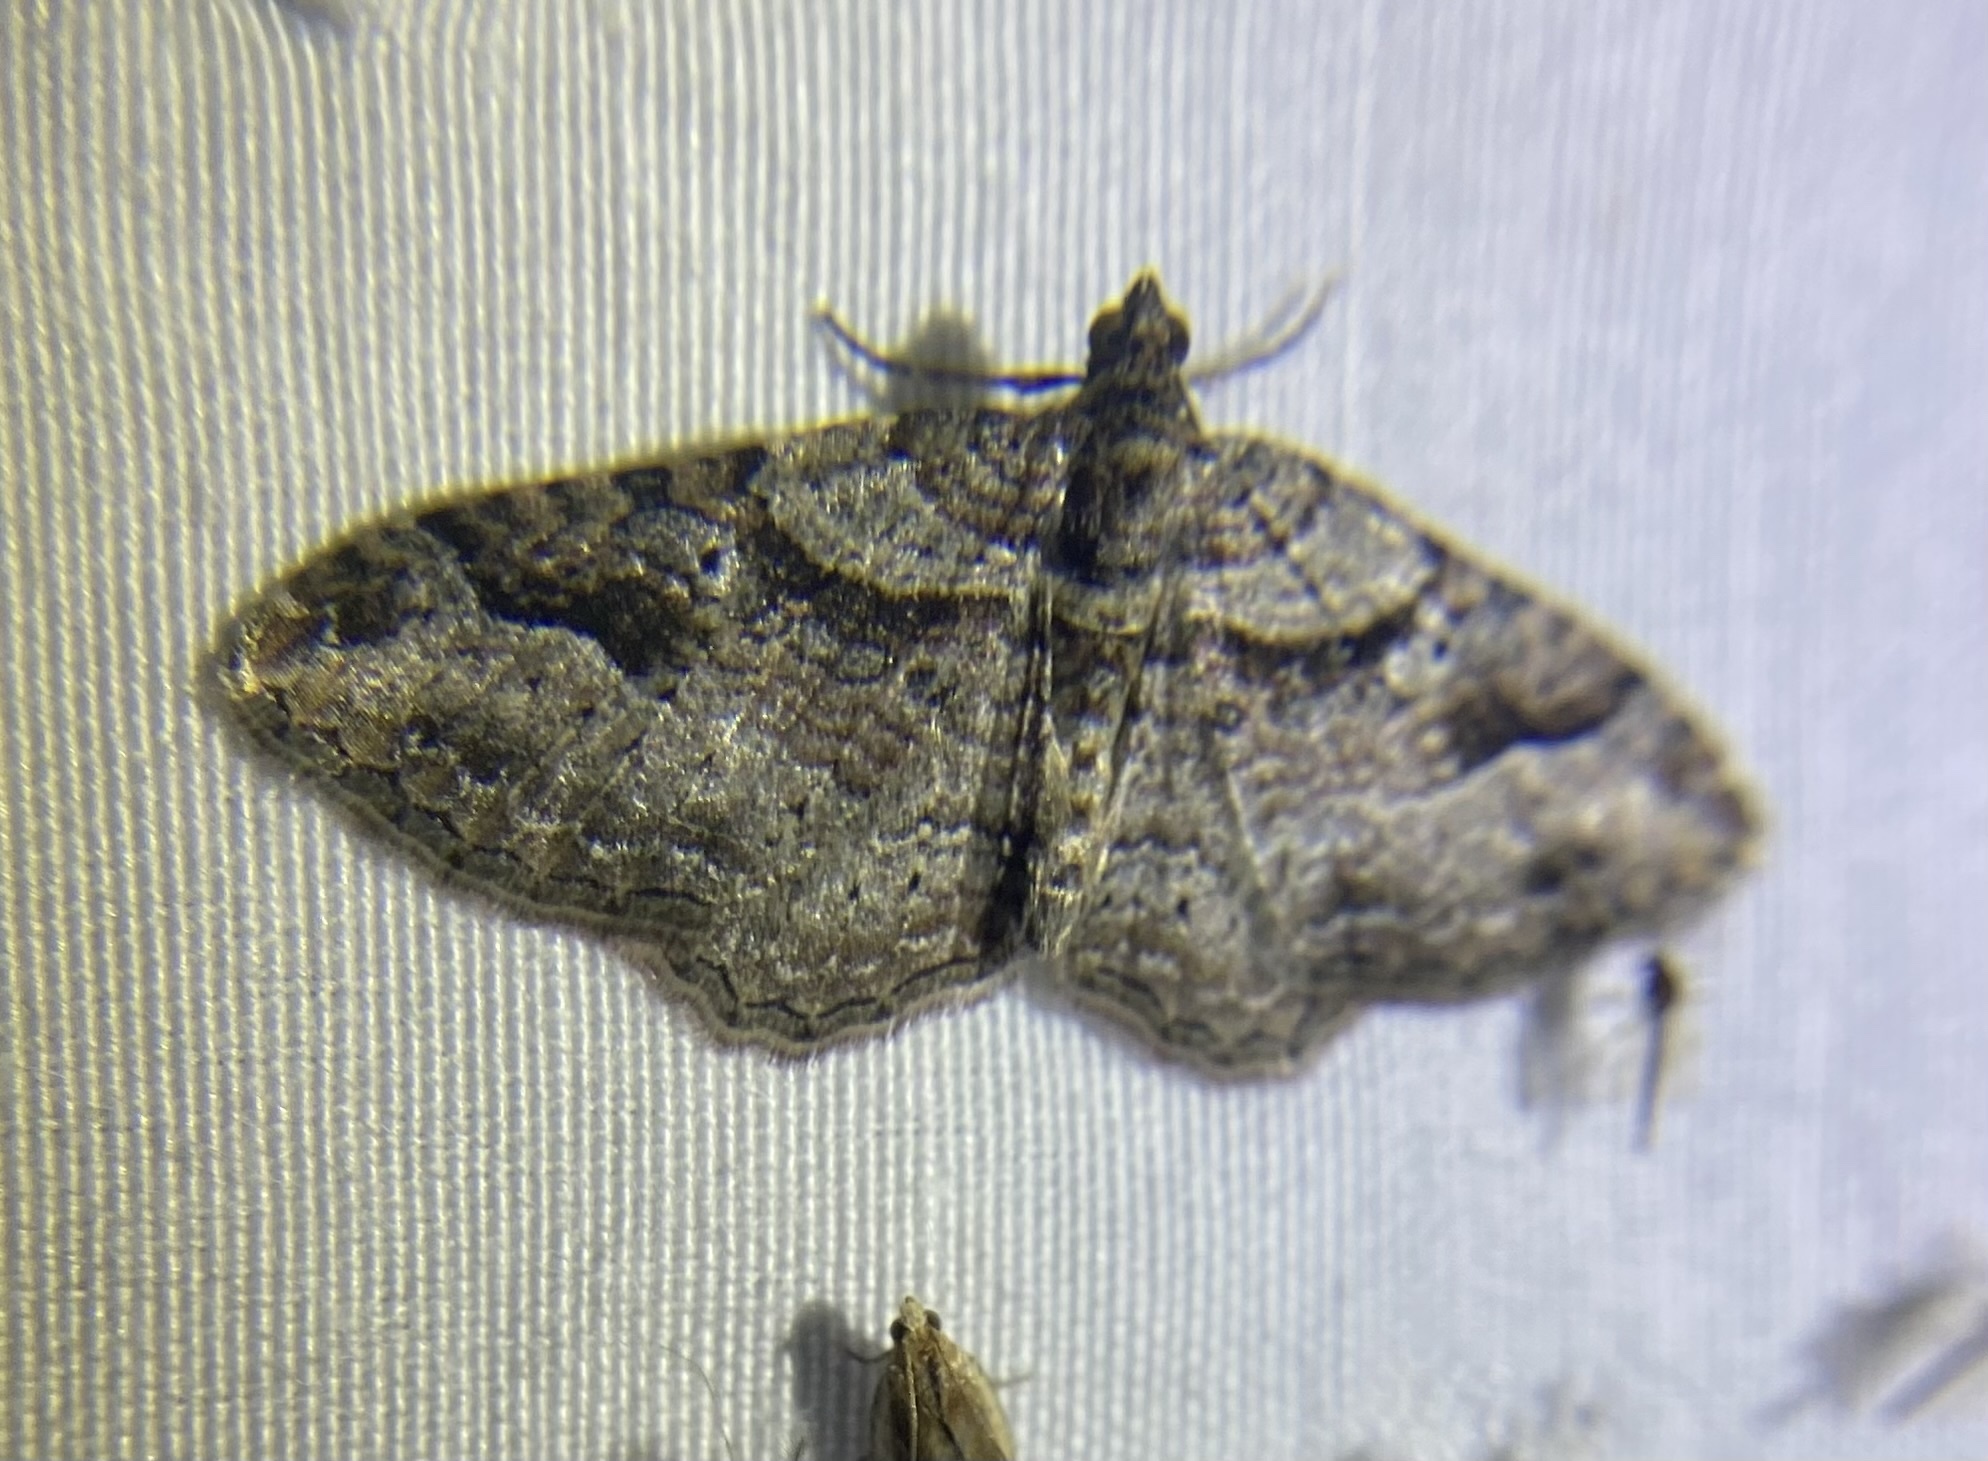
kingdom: Animalia
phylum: Arthropoda
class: Insecta
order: Lepidoptera
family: Geometridae
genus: Costaconvexa
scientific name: Costaconvexa centrostrigaria
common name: Bent-line carpet
